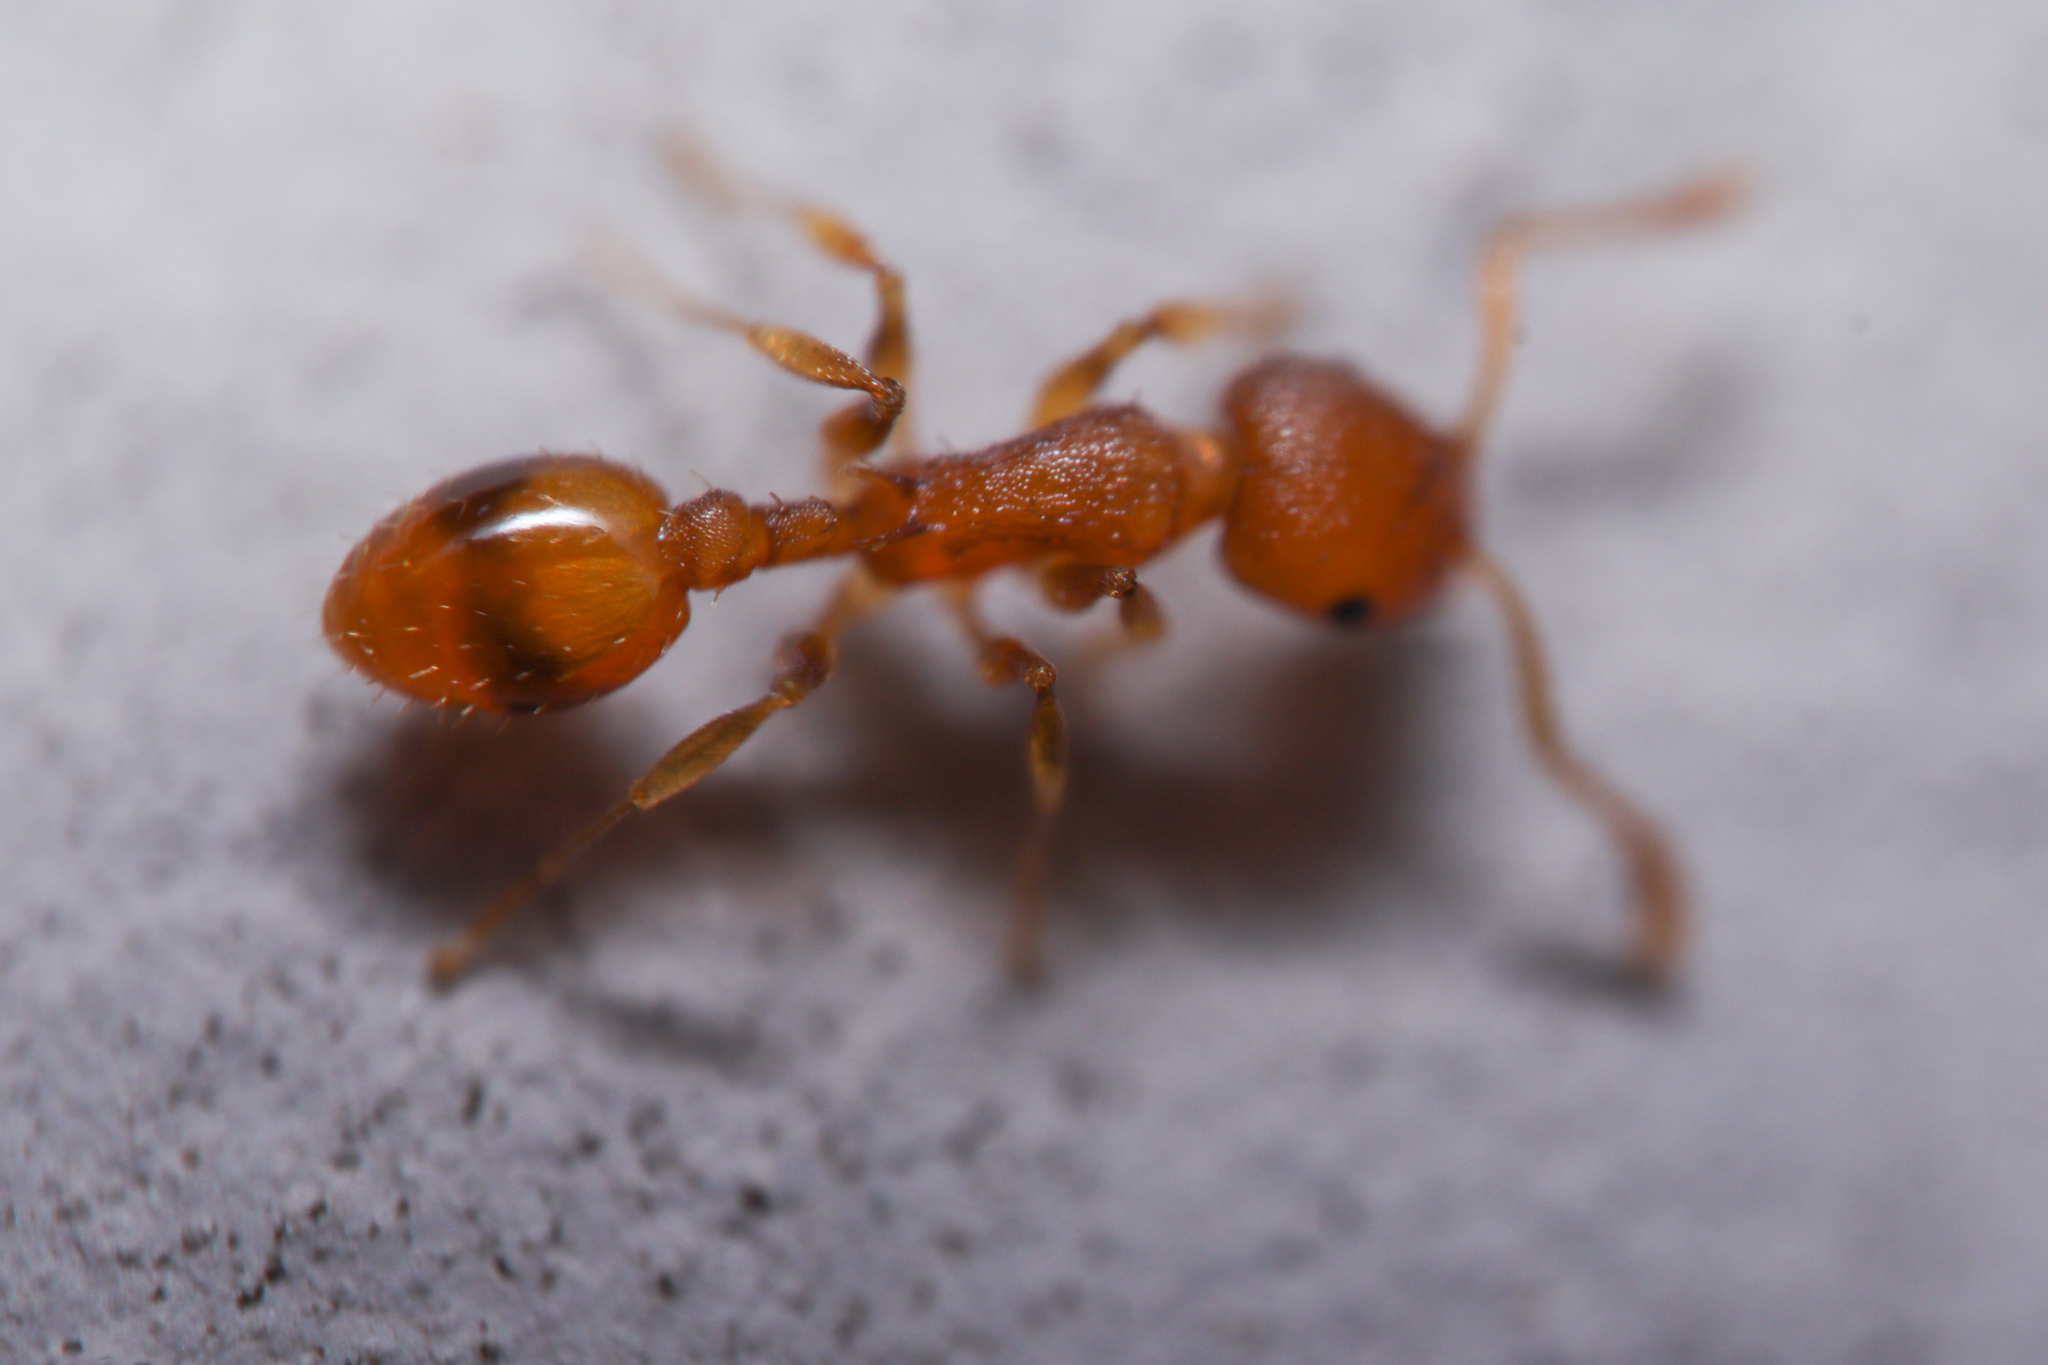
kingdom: Animalia
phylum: Arthropoda
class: Insecta
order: Hymenoptera
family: Formicidae
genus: Temnothorax
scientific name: Temnothorax curvispinosus
